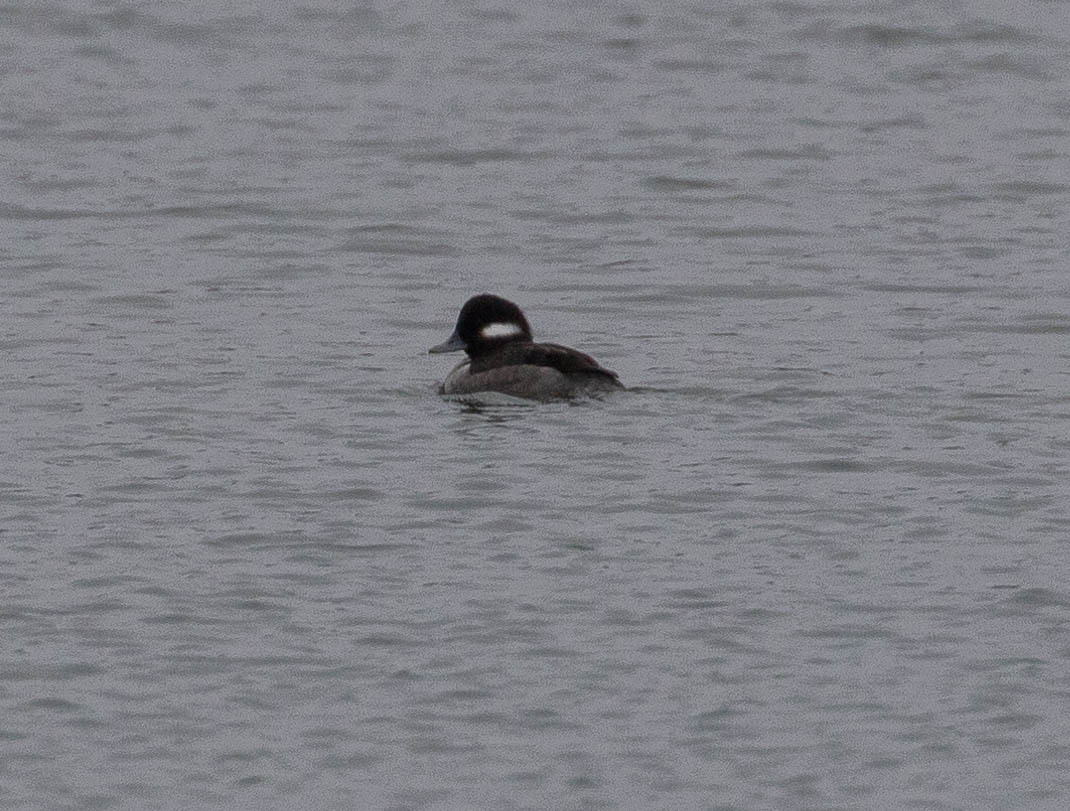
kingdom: Animalia
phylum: Chordata
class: Aves
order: Anseriformes
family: Anatidae
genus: Bucephala
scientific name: Bucephala albeola
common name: Bufflehead
